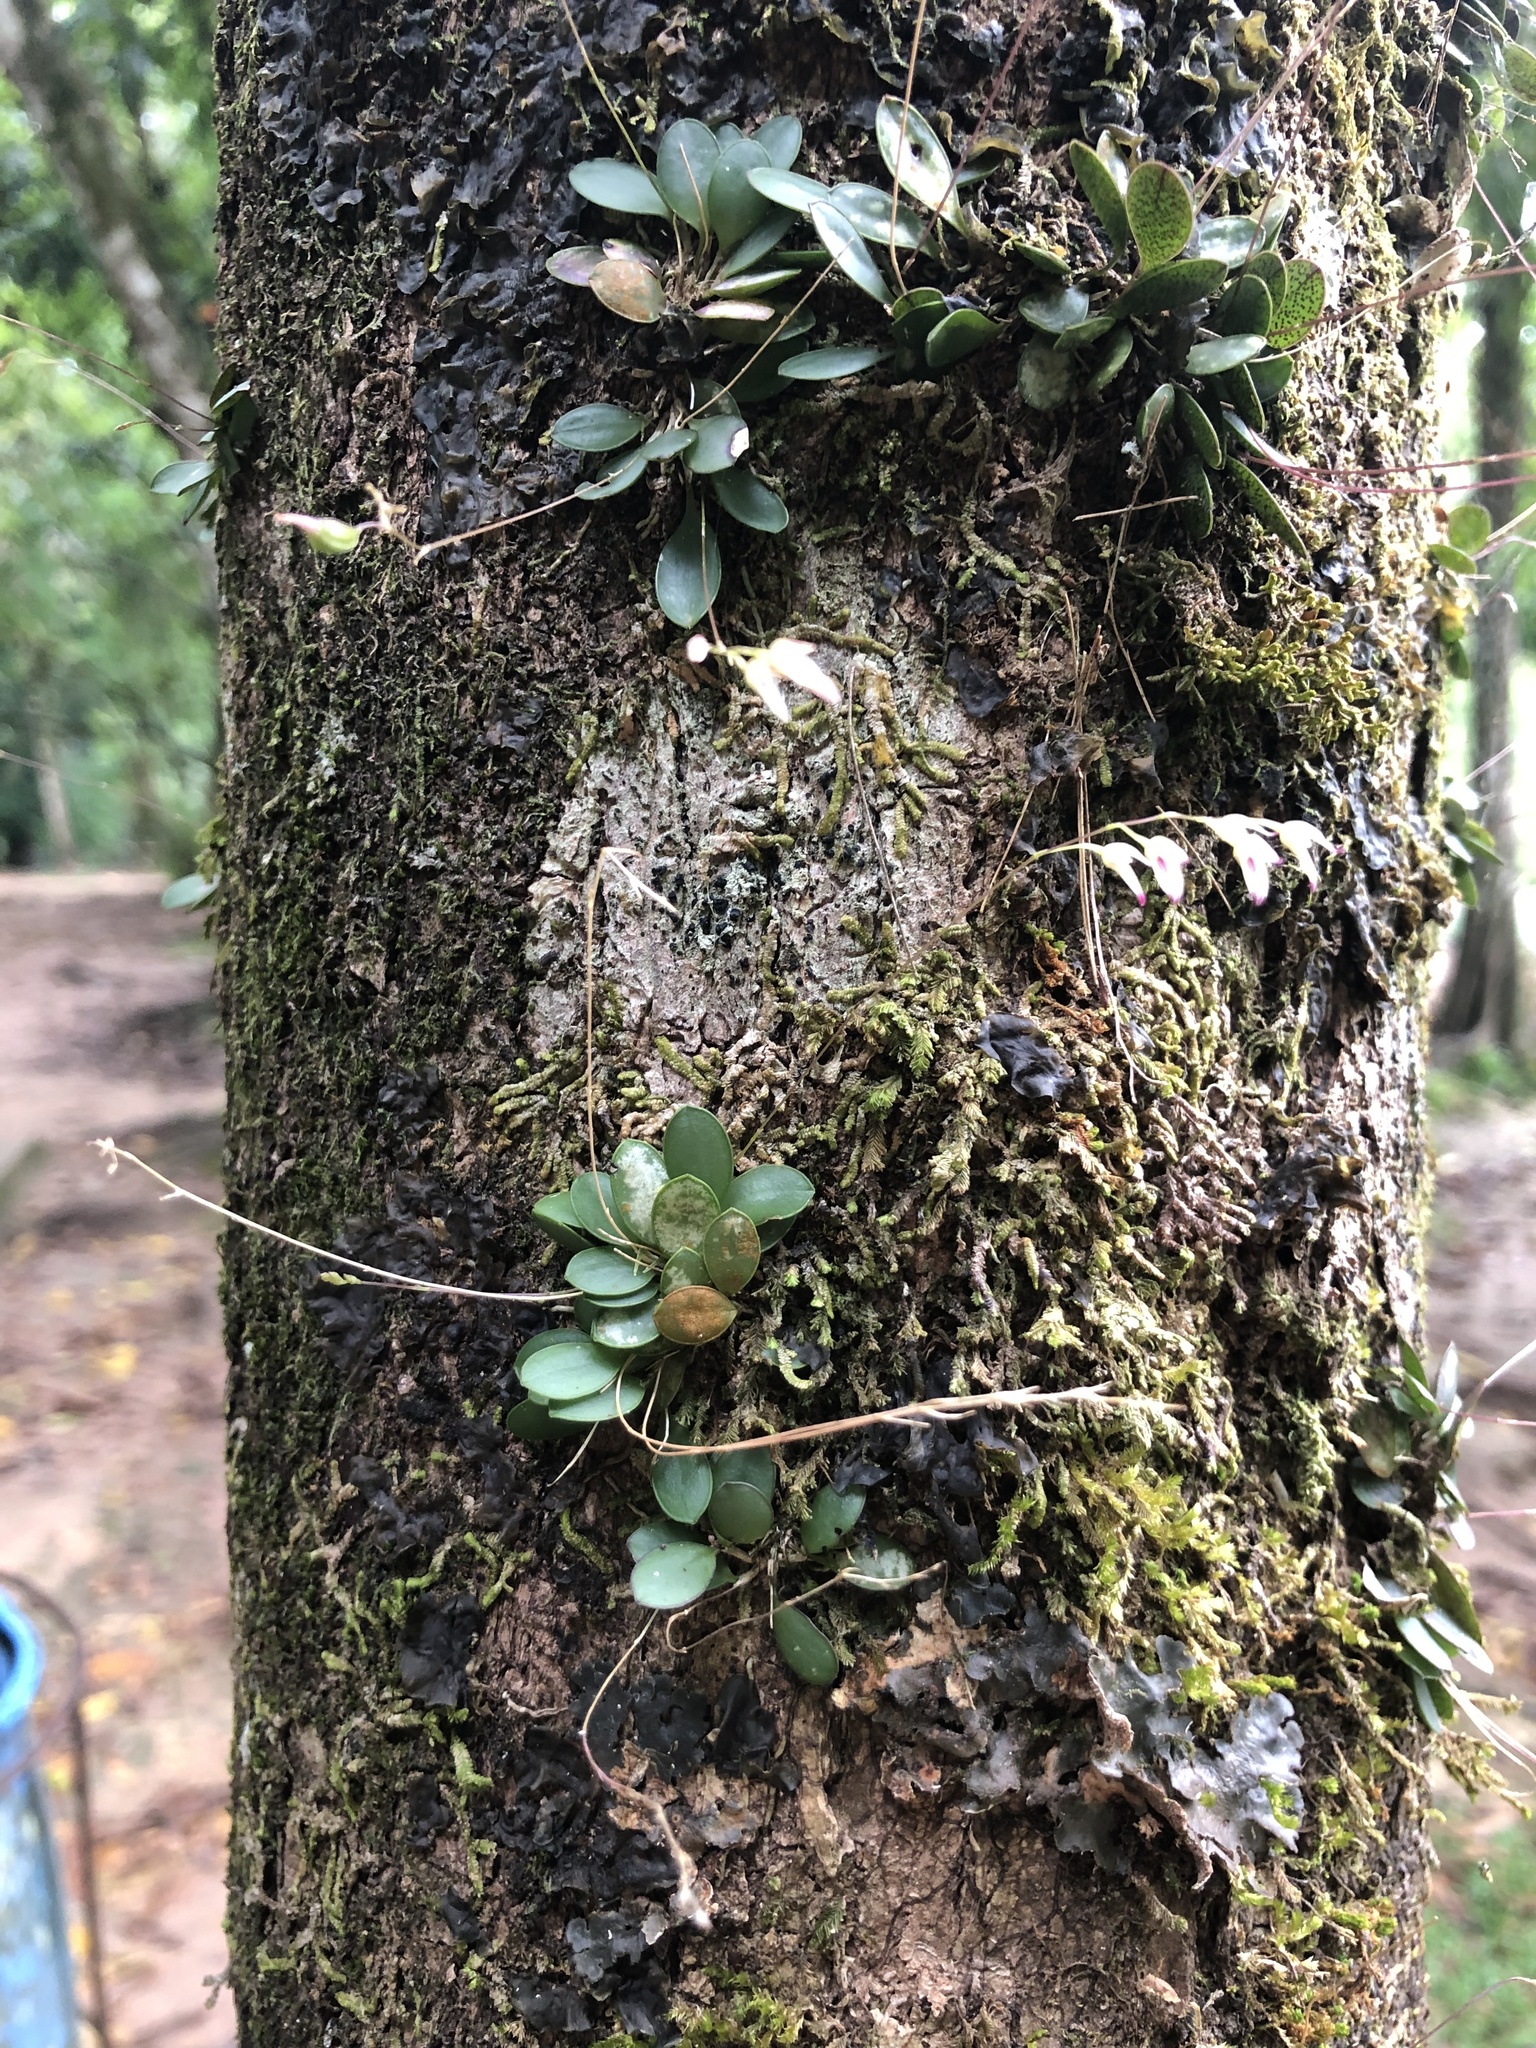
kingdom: Plantae
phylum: Tracheophyta
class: Liliopsida
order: Asparagales
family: Orchidaceae
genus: Specklinia
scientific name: Specklinia picta
